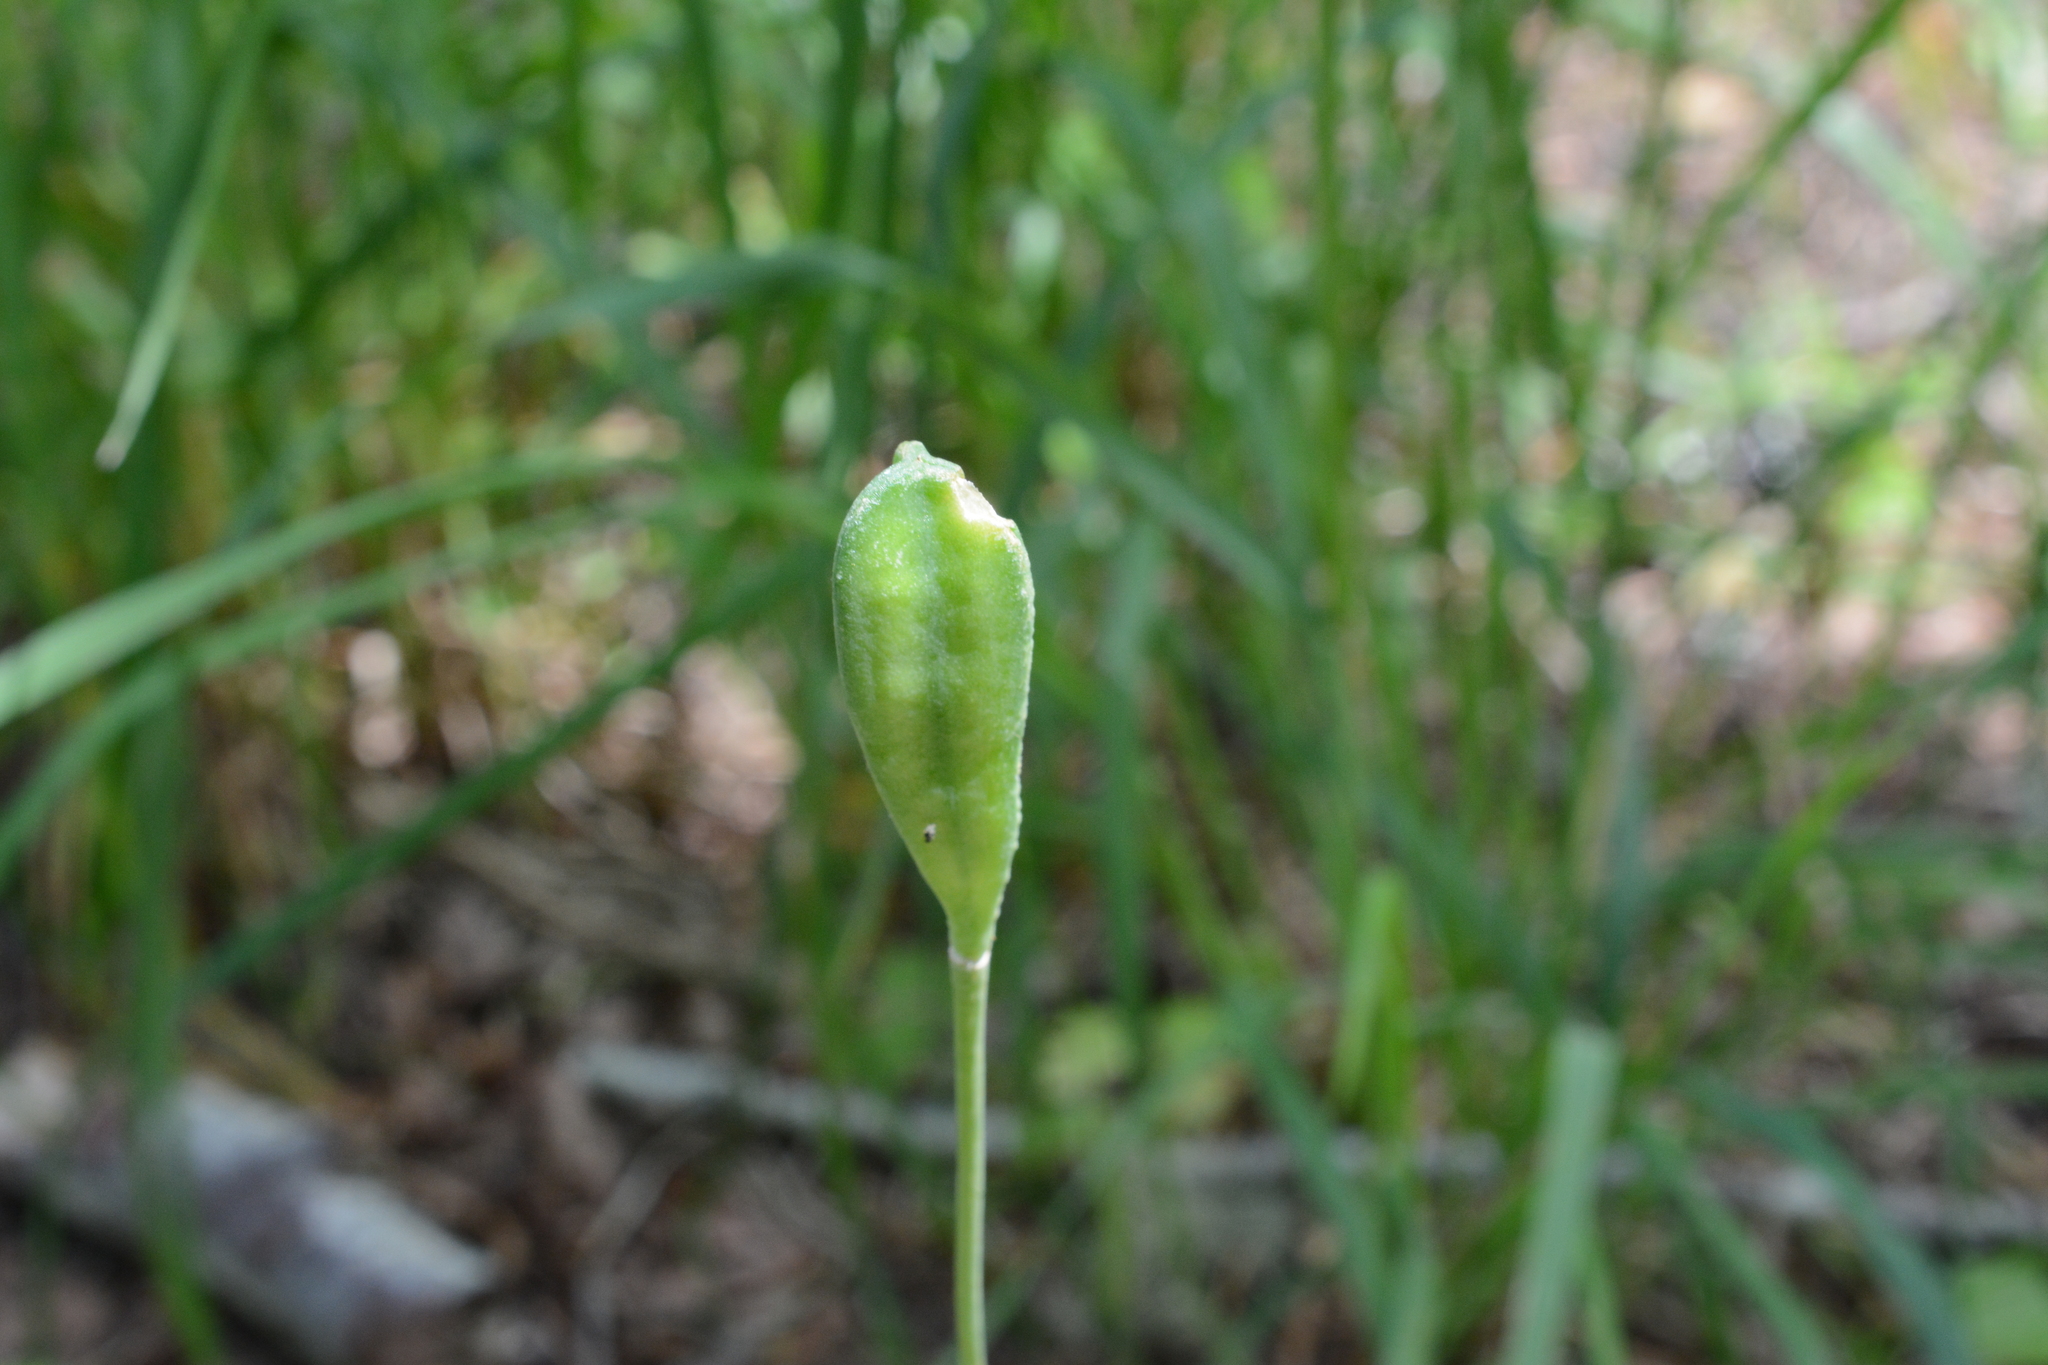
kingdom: Plantae
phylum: Tracheophyta
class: Liliopsida
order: Liliales
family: Liliaceae
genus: Erythronium
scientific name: Erythronium oregonum
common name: Giant adder's-tongue
